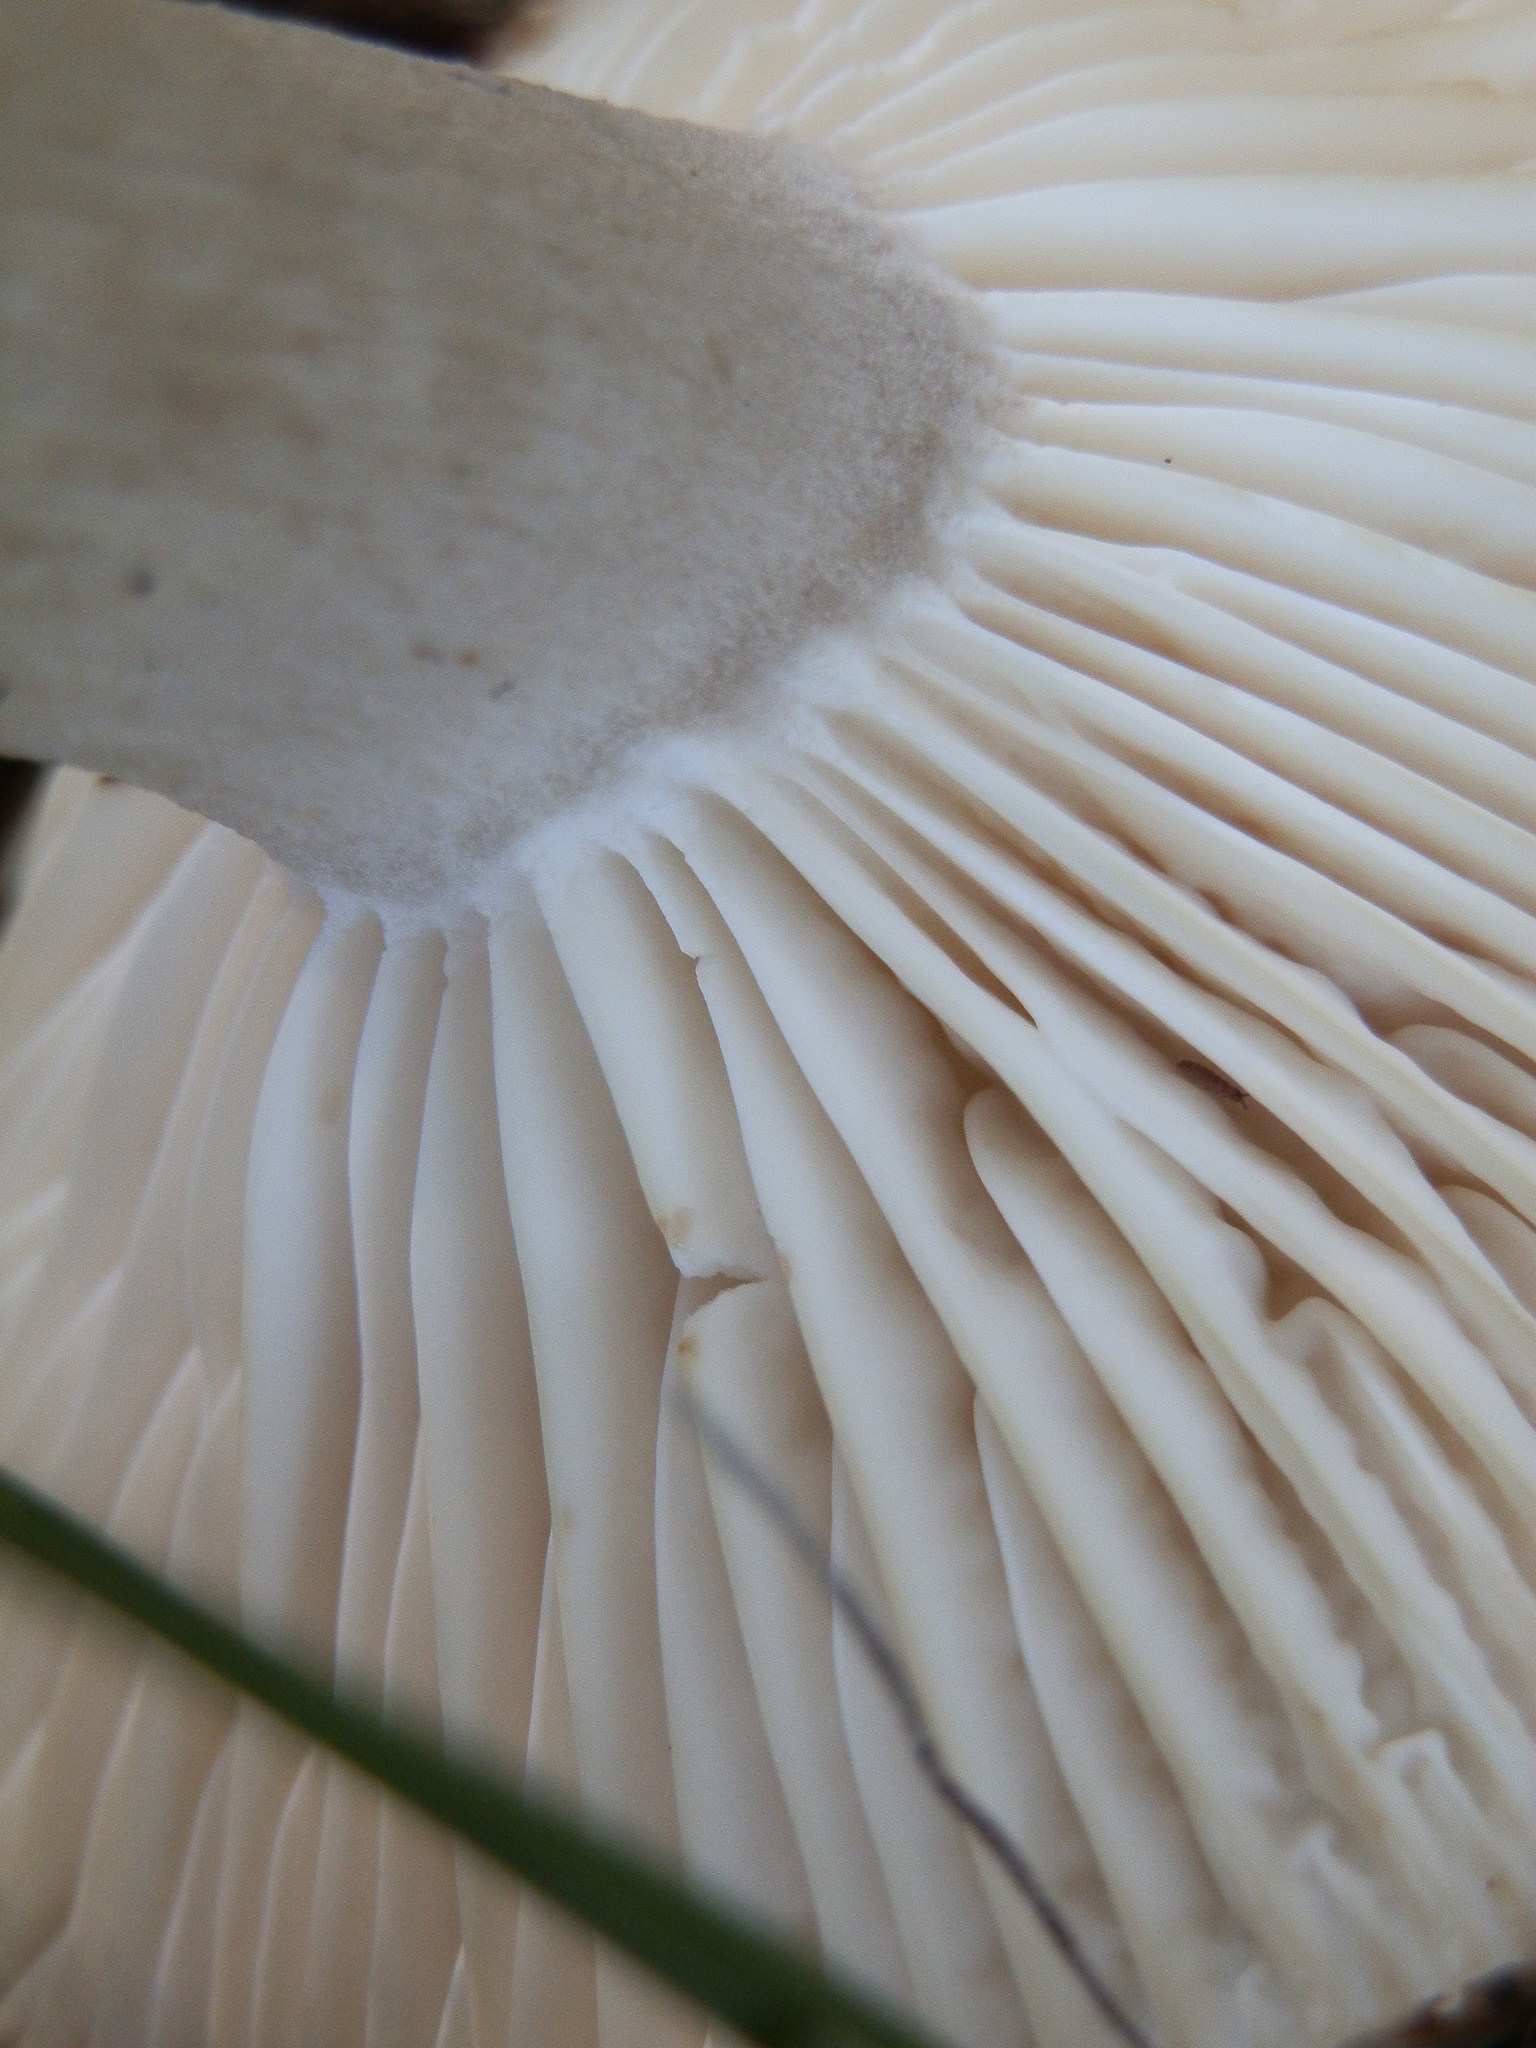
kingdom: Fungi
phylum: Basidiomycota
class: Agaricomycetes
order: Agaricales
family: Hygrophoraceae
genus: Hygrophorus
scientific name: Hygrophorus pustulatus
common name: Blistered woodwax
